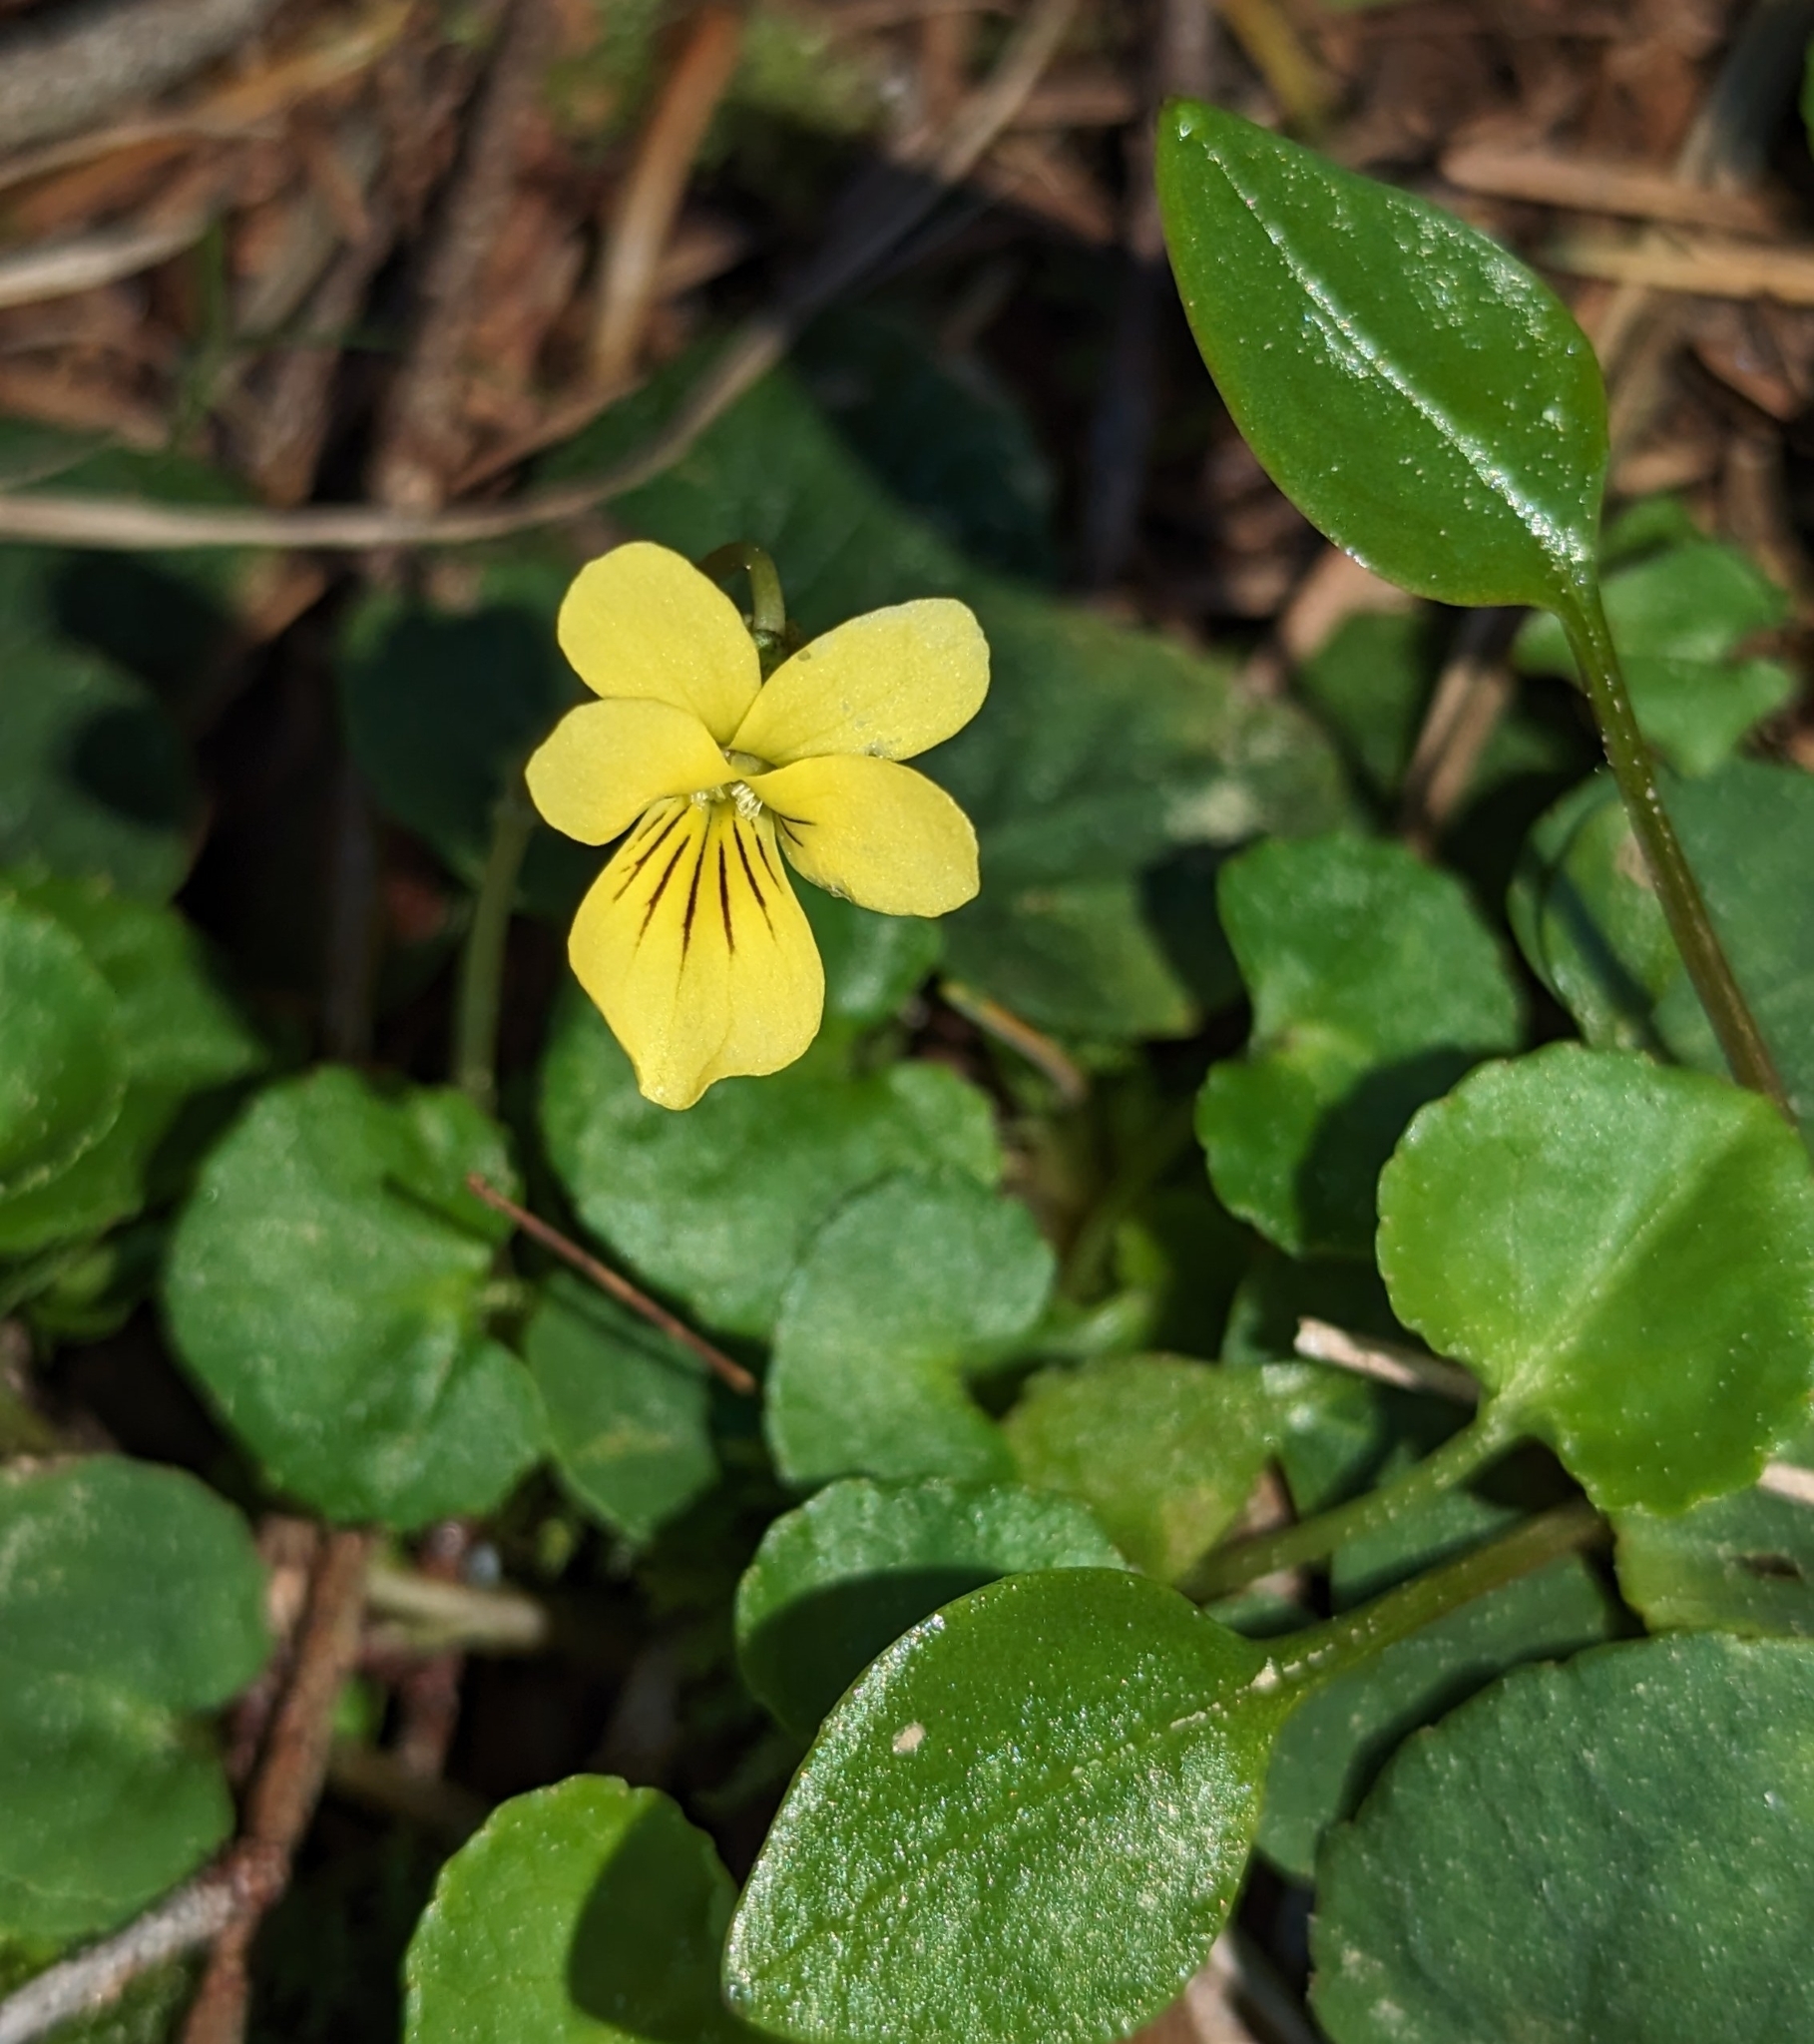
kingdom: Plantae
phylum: Tracheophyta
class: Magnoliopsida
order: Malpighiales
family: Violaceae
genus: Viola
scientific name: Viola sempervirens
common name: Evergreen violet
